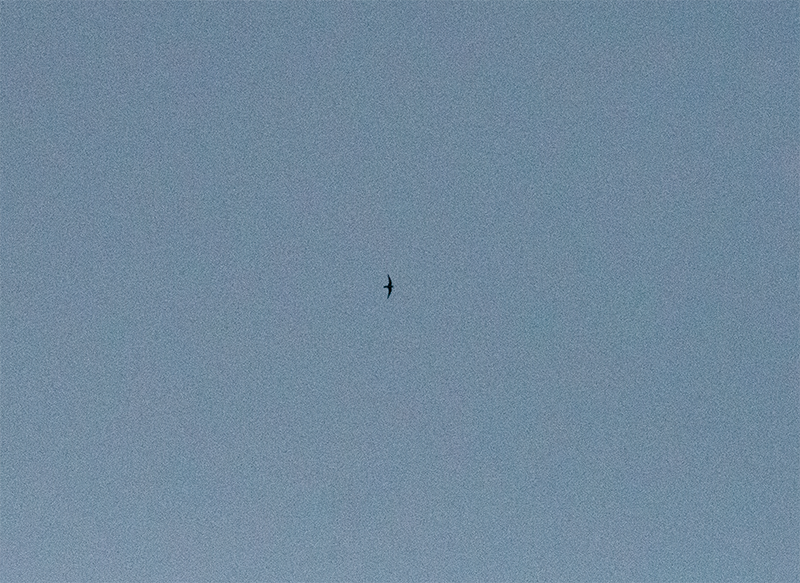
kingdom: Animalia
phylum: Chordata
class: Aves
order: Apodiformes
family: Apodidae
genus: Cypseloides
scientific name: Cypseloides niger
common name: Black swift
